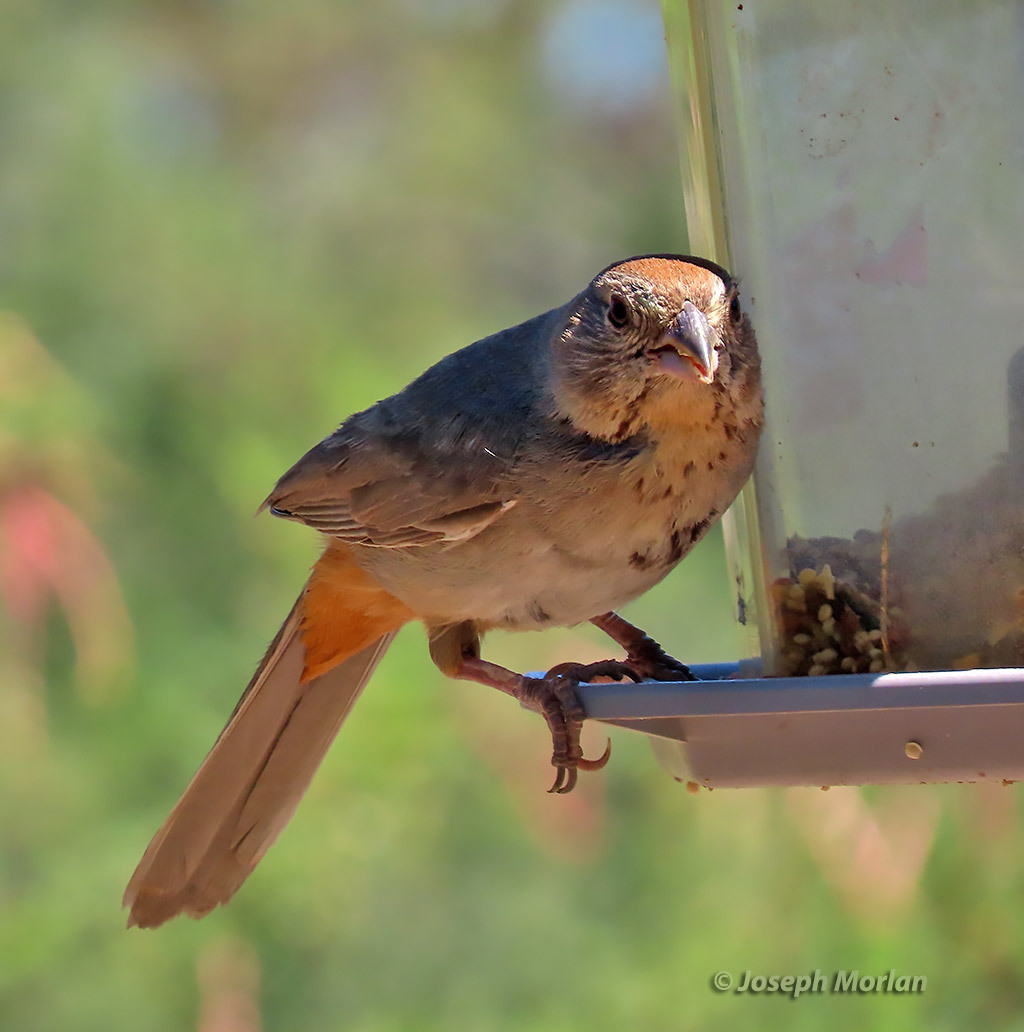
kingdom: Animalia
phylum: Chordata
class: Aves
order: Passeriformes
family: Passerellidae
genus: Melozone
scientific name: Melozone fusca
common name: Canyon towhee
